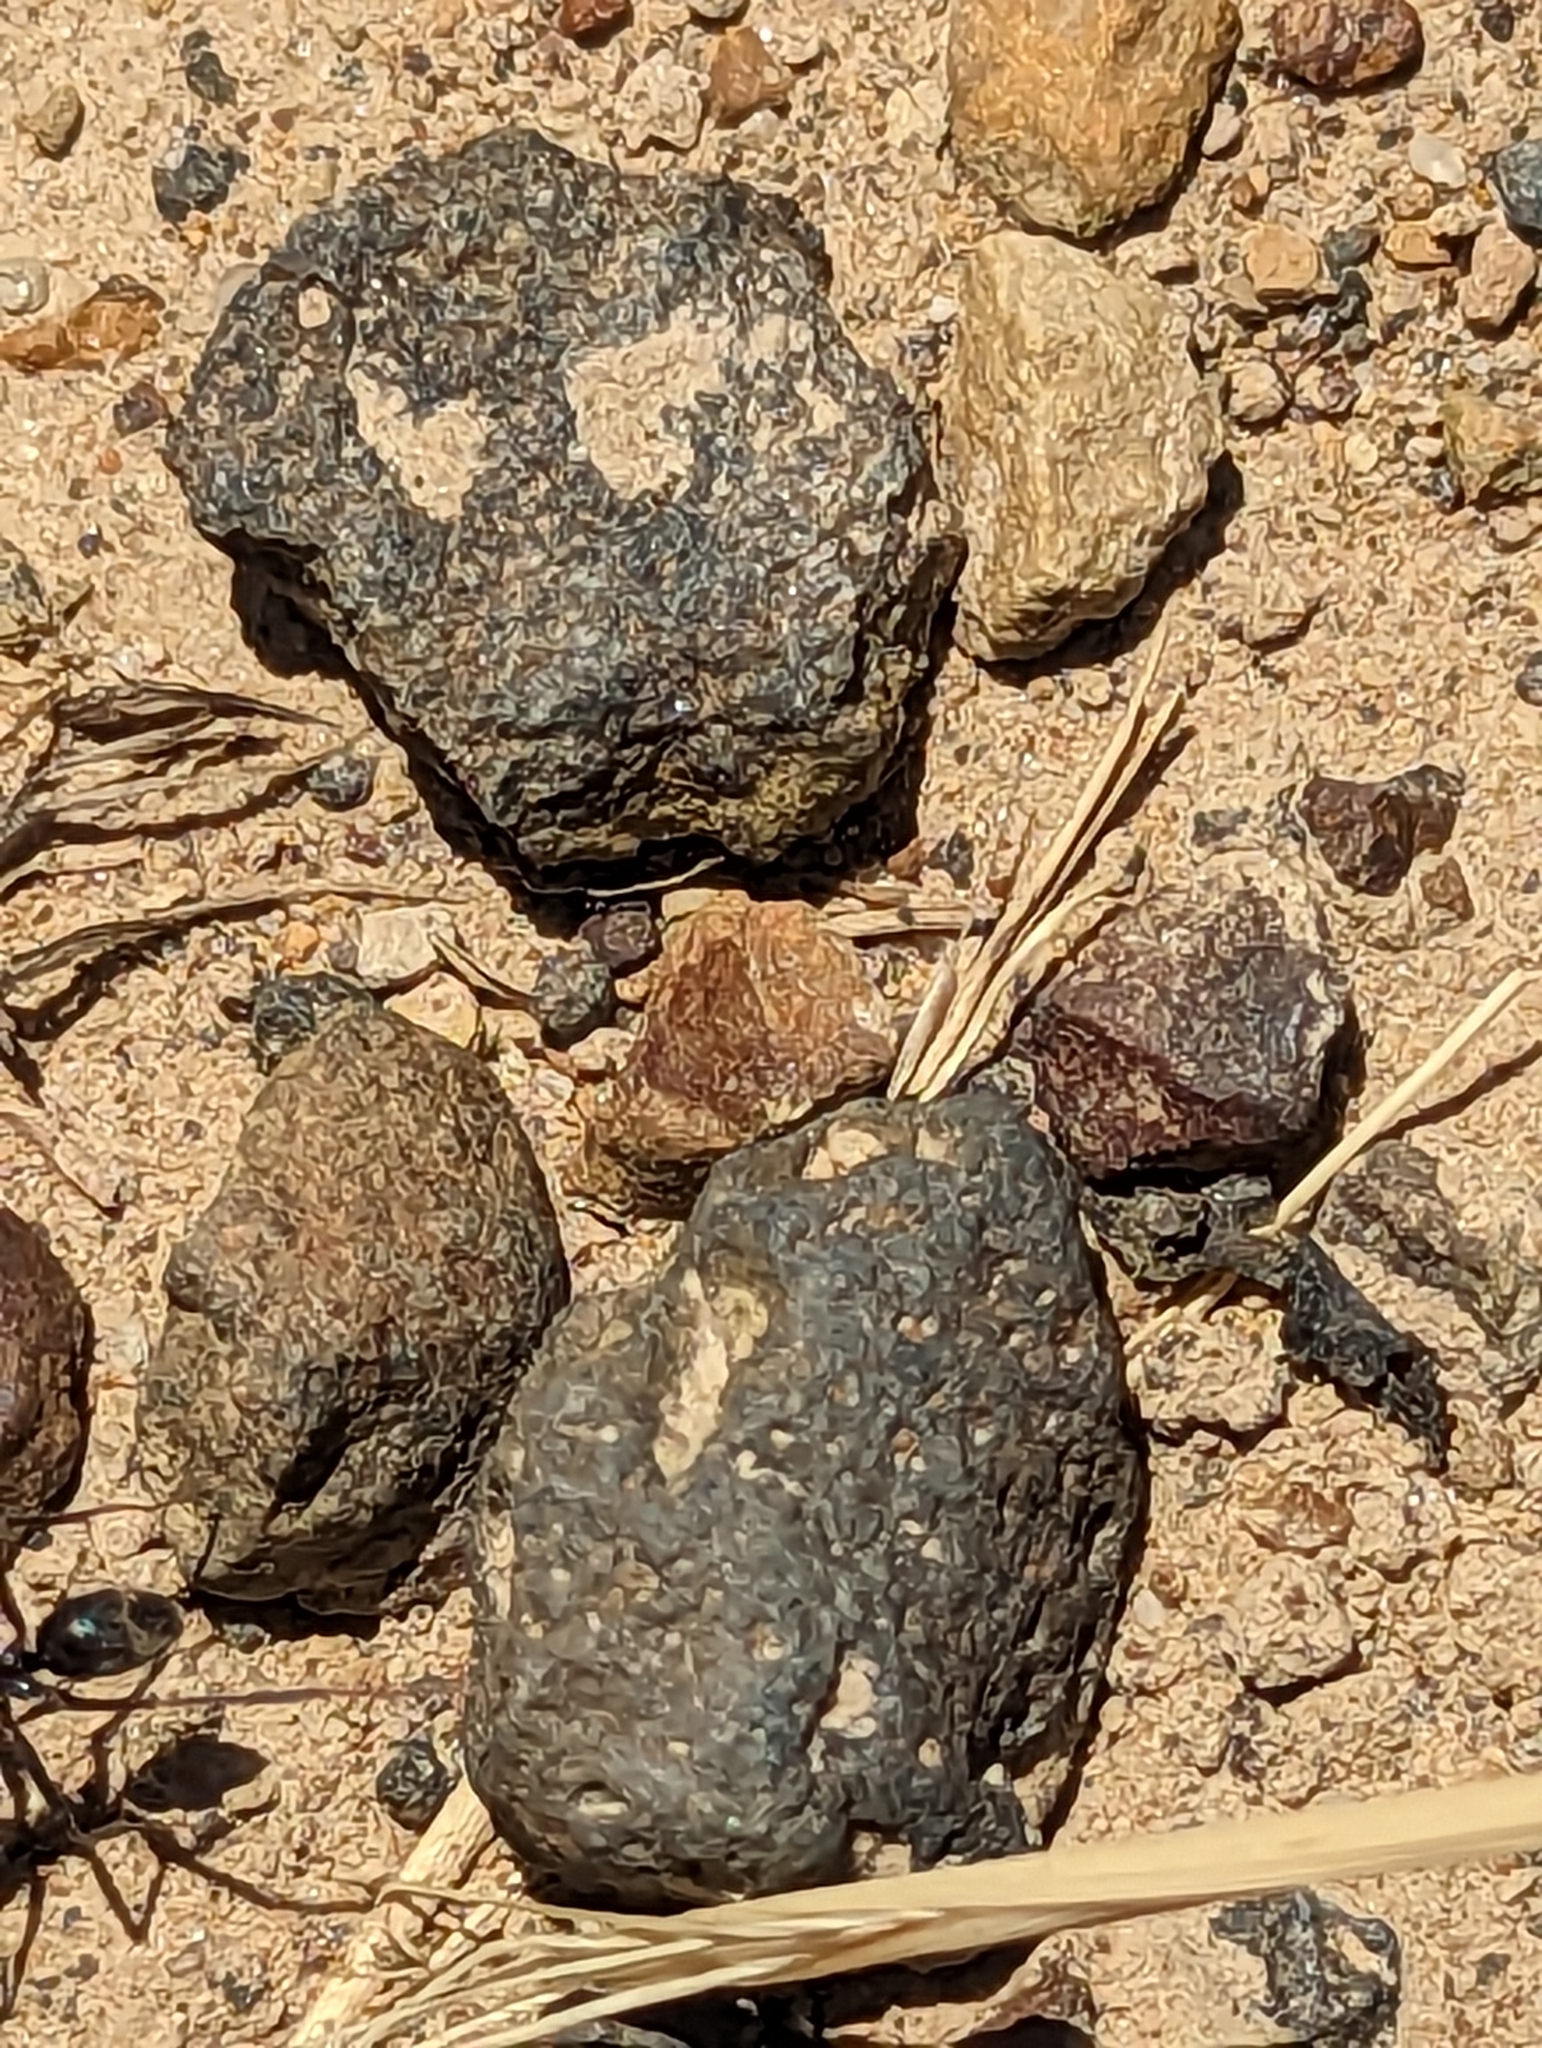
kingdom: Animalia
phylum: Arthropoda
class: Insecta
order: Hymenoptera
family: Formicidae
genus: Iridomyrmex
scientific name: Iridomyrmex purpureus
